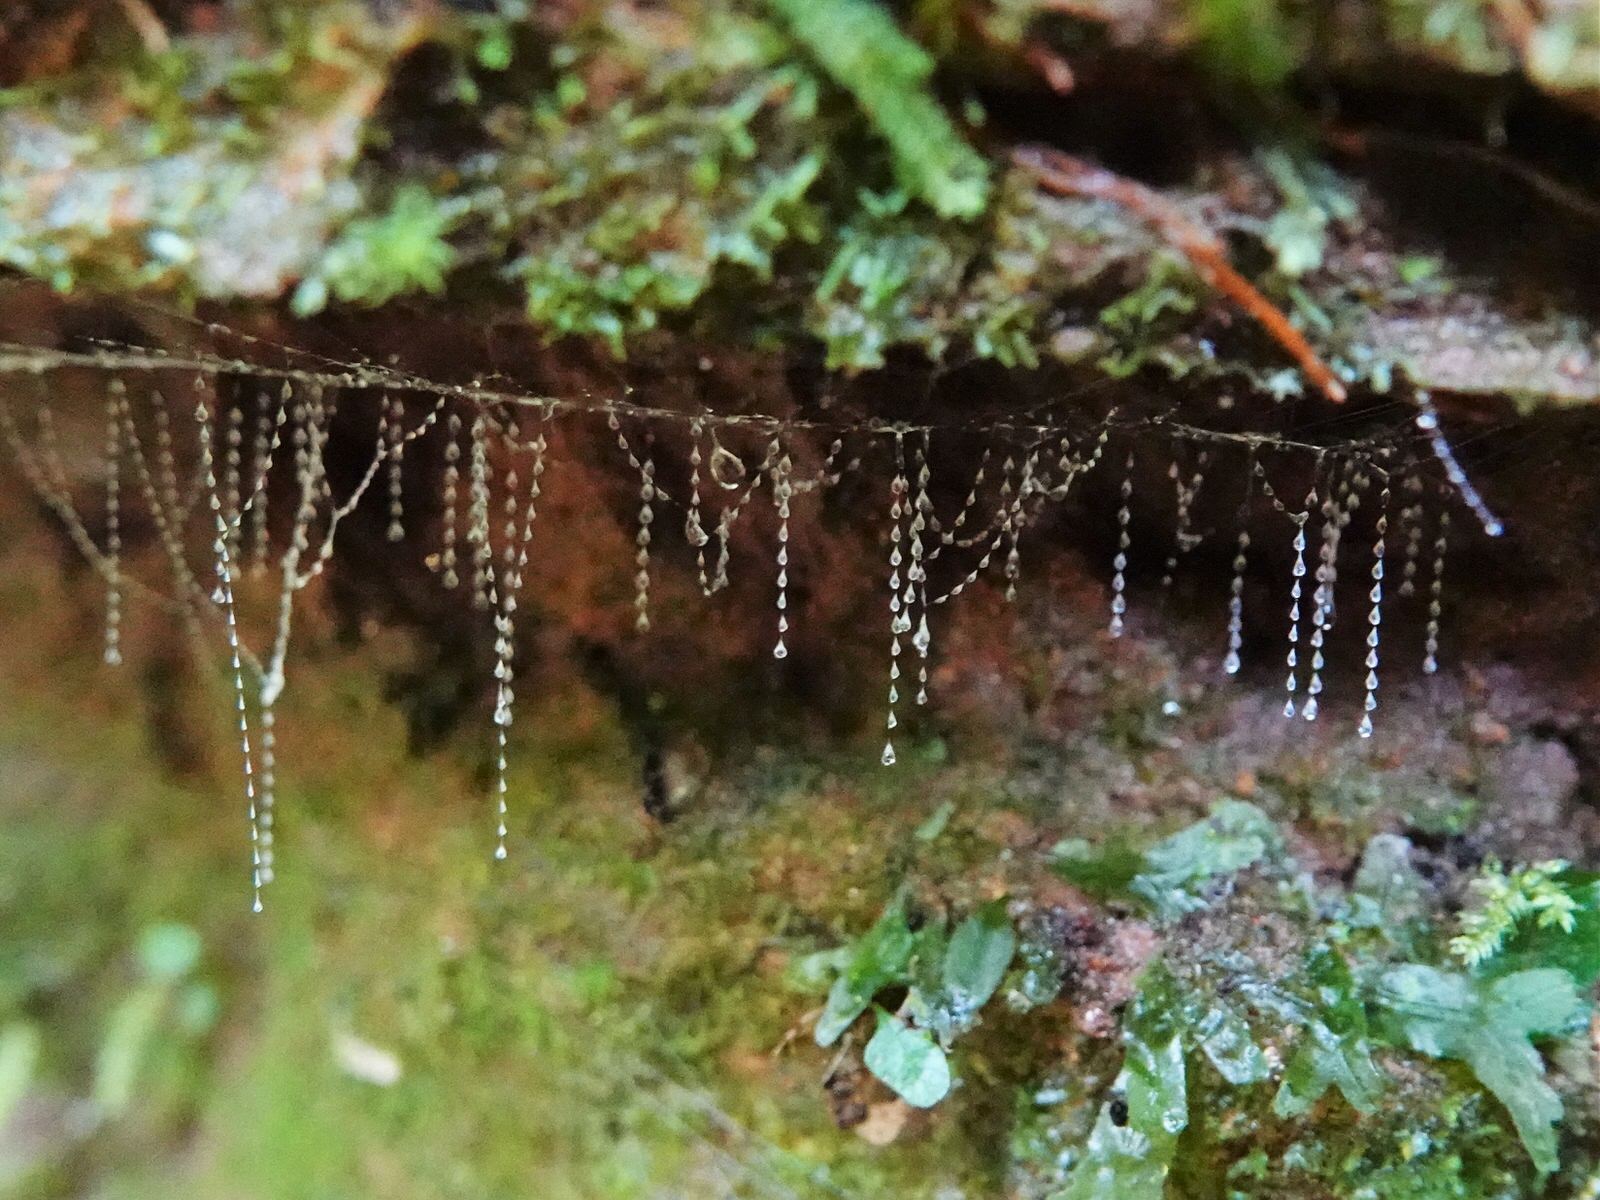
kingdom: Animalia
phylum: Arthropoda
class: Insecta
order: Diptera
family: Keroplatidae
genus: Arachnocampa
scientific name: Arachnocampa luminosa
